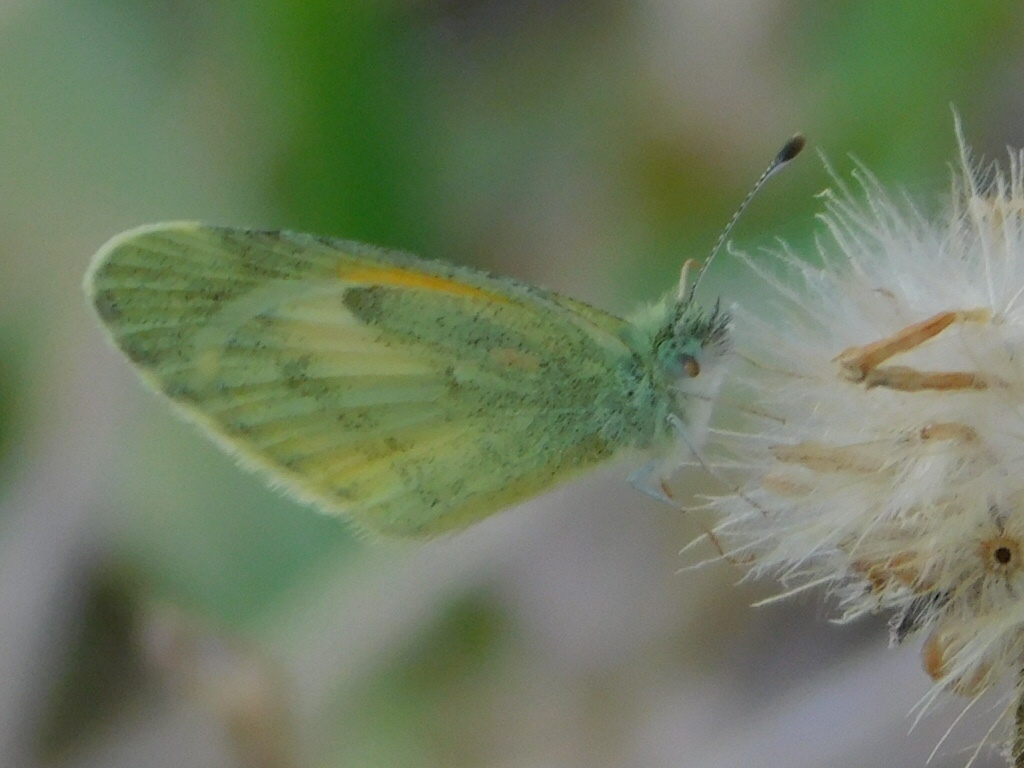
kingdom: Animalia
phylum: Arthropoda
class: Insecta
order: Lepidoptera
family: Pieridae
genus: Nathalis
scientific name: Nathalis iole
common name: Dainty sulphur
